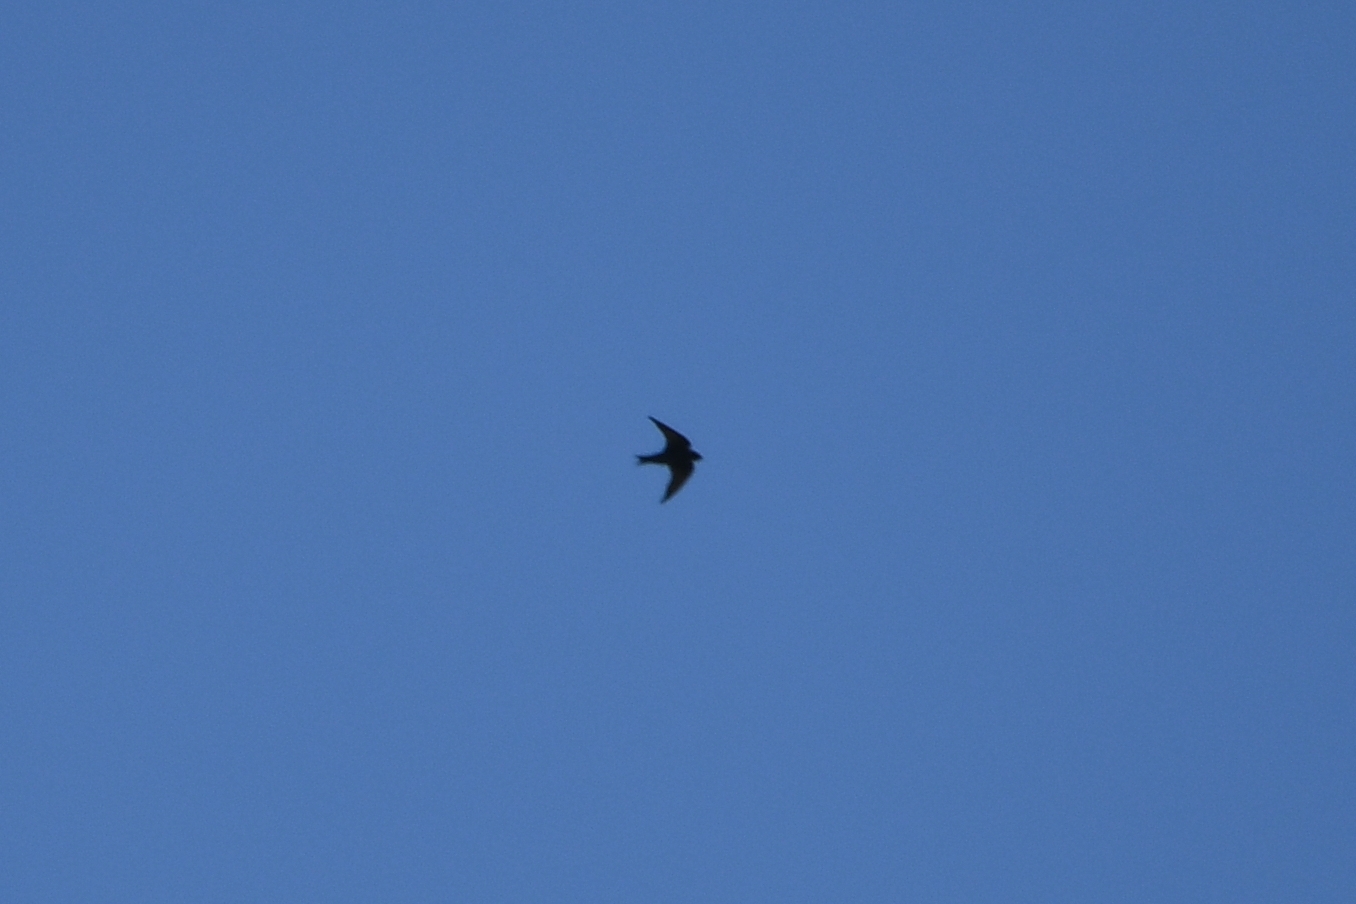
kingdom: Animalia
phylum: Chordata
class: Aves
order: Passeriformes
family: Hirundinidae
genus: Progne
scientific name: Progne subis
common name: Purple martin
